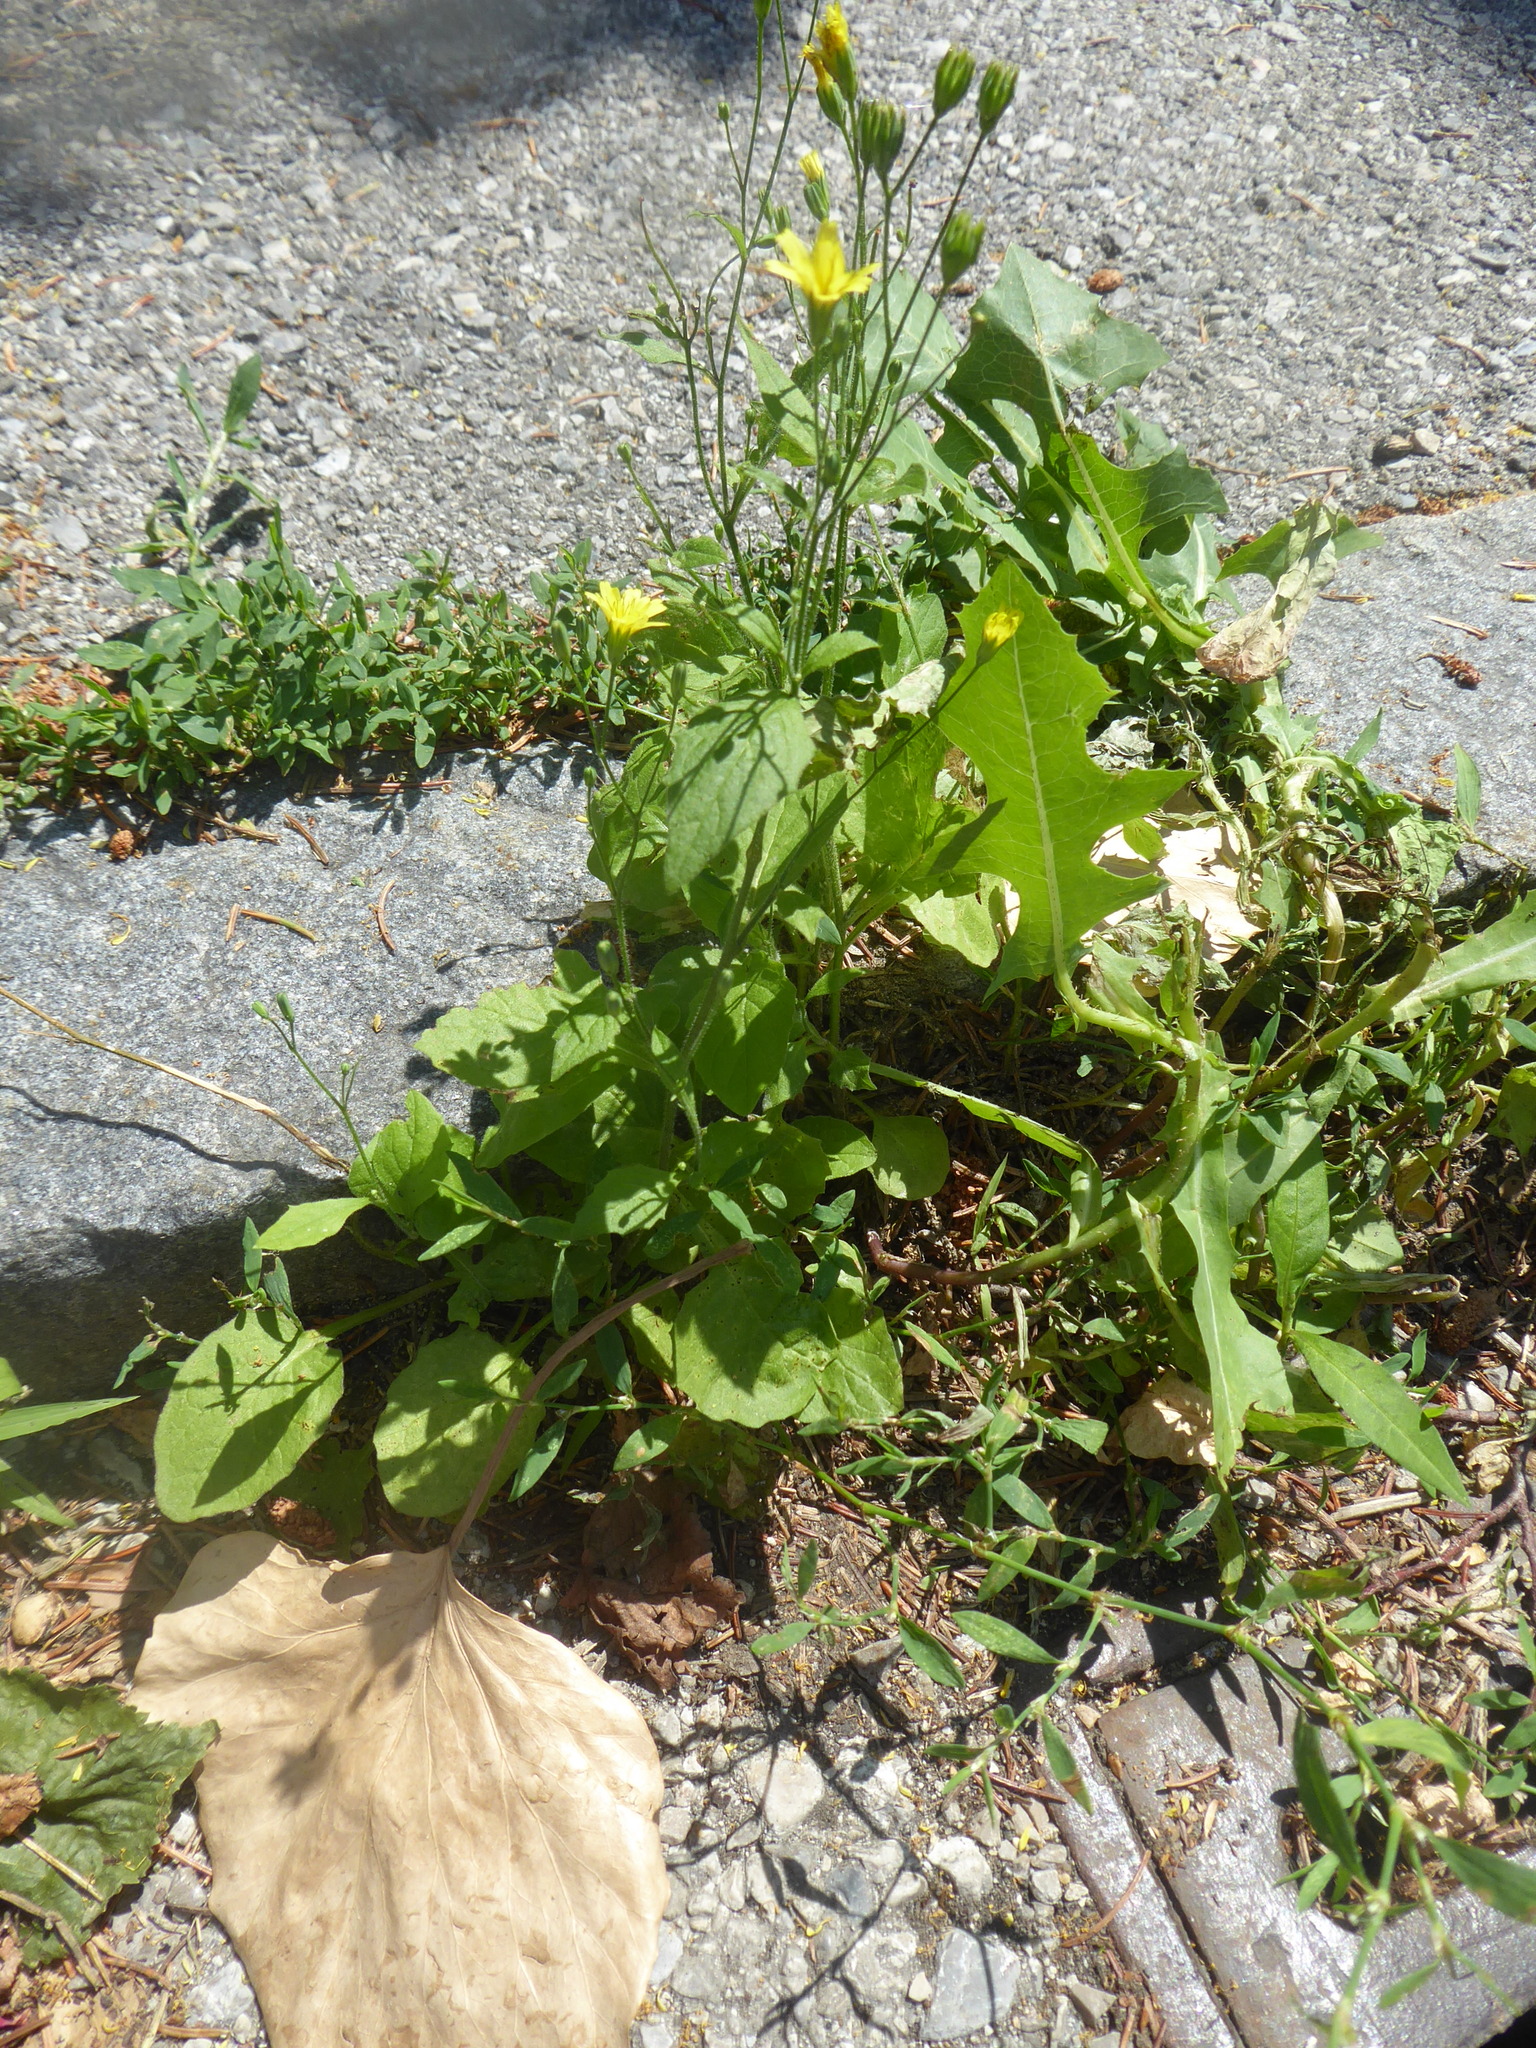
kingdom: Plantae
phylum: Tracheophyta
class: Magnoliopsida
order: Asterales
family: Asteraceae
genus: Lapsana
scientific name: Lapsana communis
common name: Nipplewort
